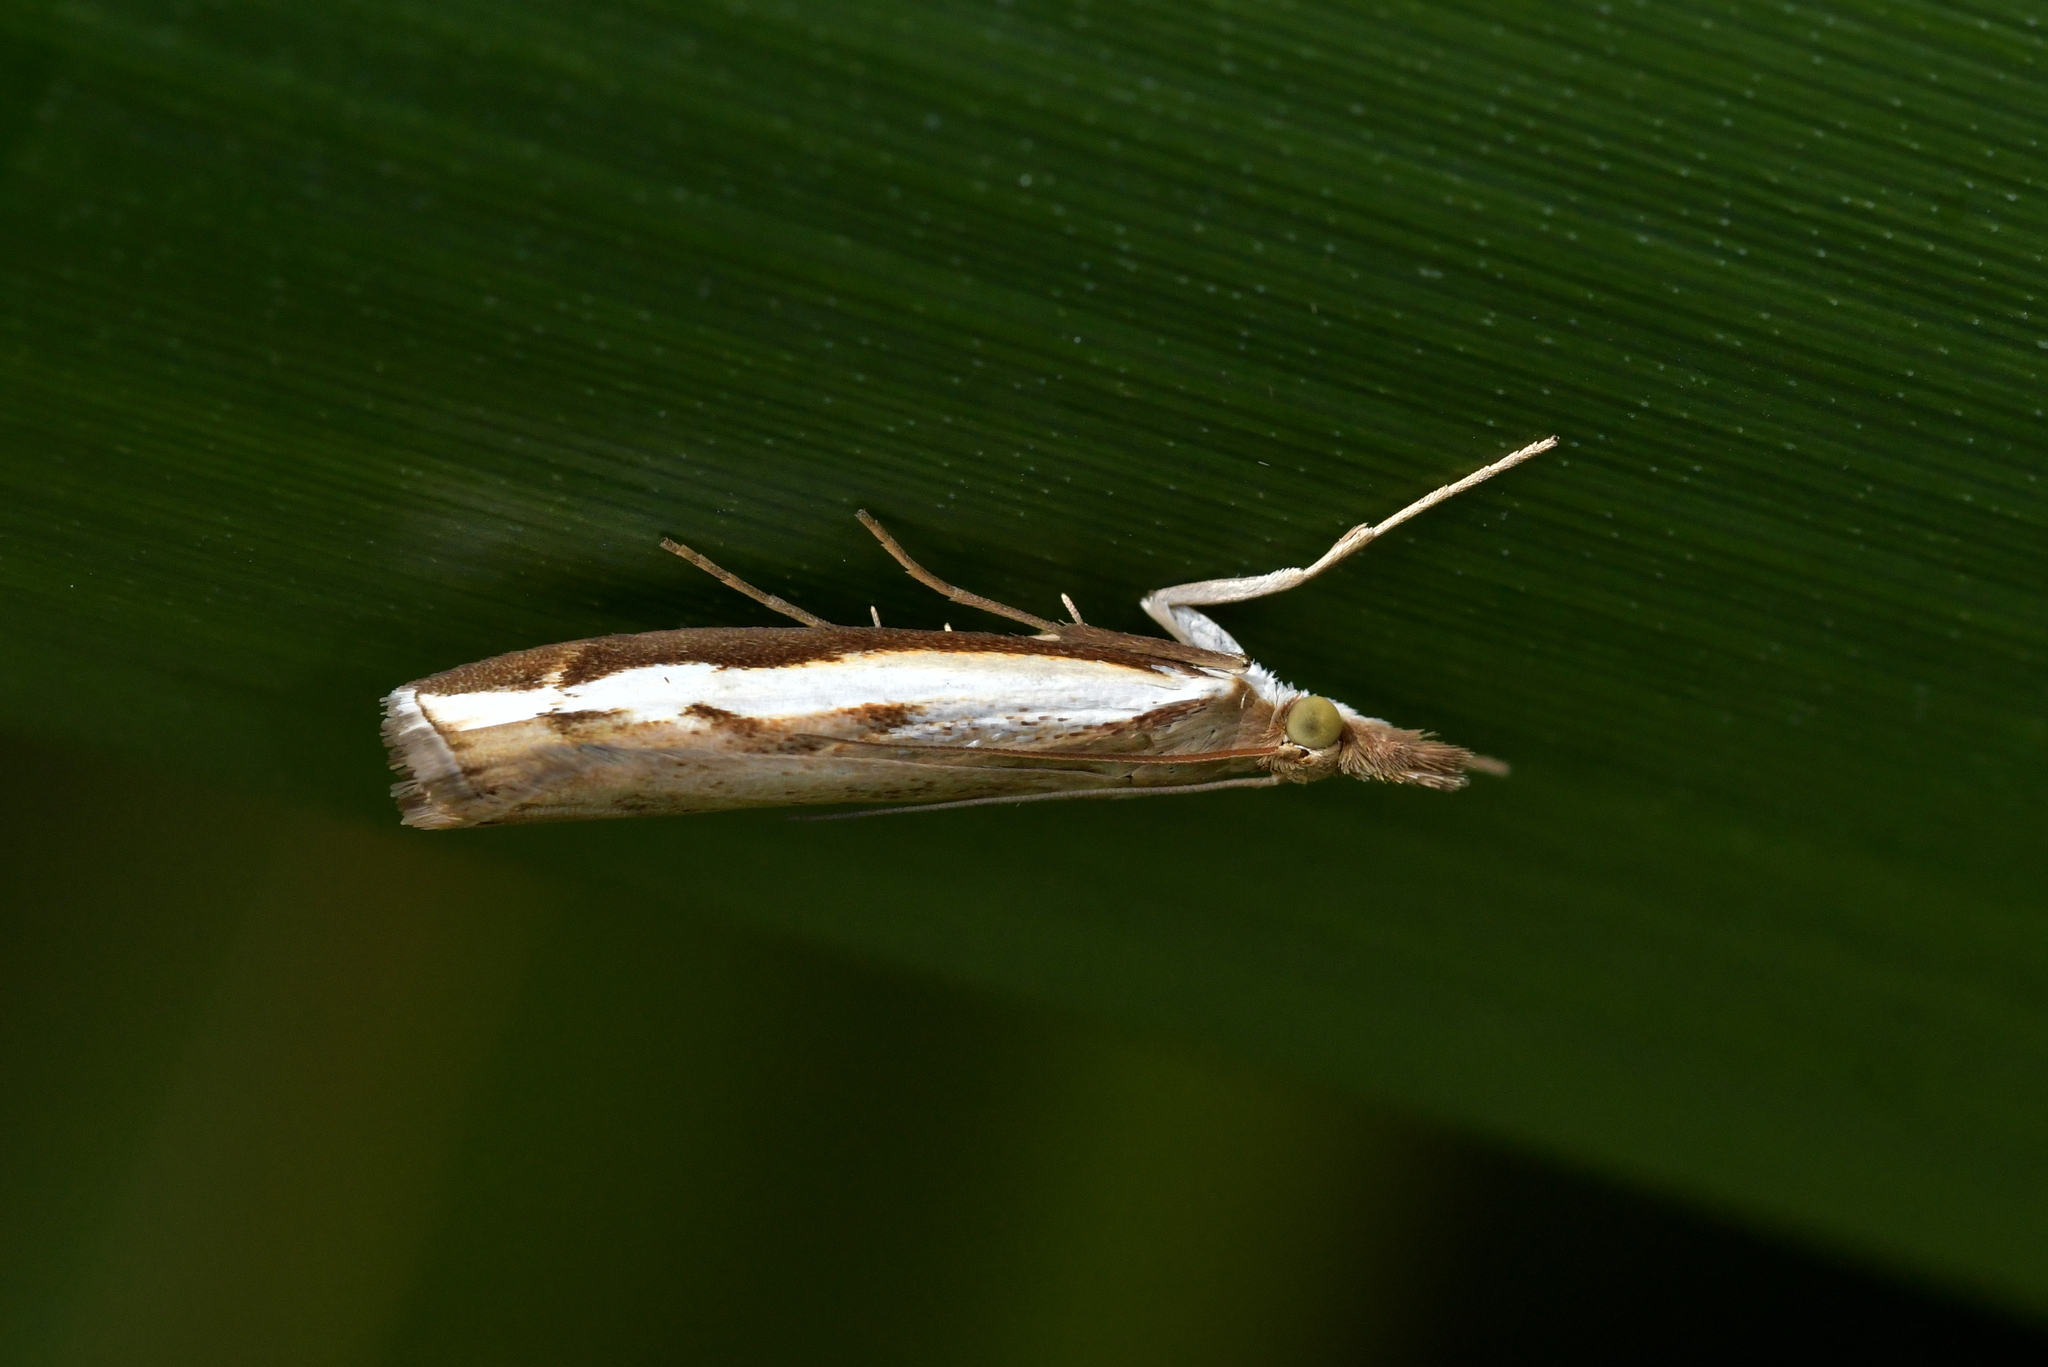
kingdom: Animalia
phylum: Arthropoda
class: Insecta
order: Lepidoptera
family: Crambidae
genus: Orocrambus
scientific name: Orocrambus flexuosellus
